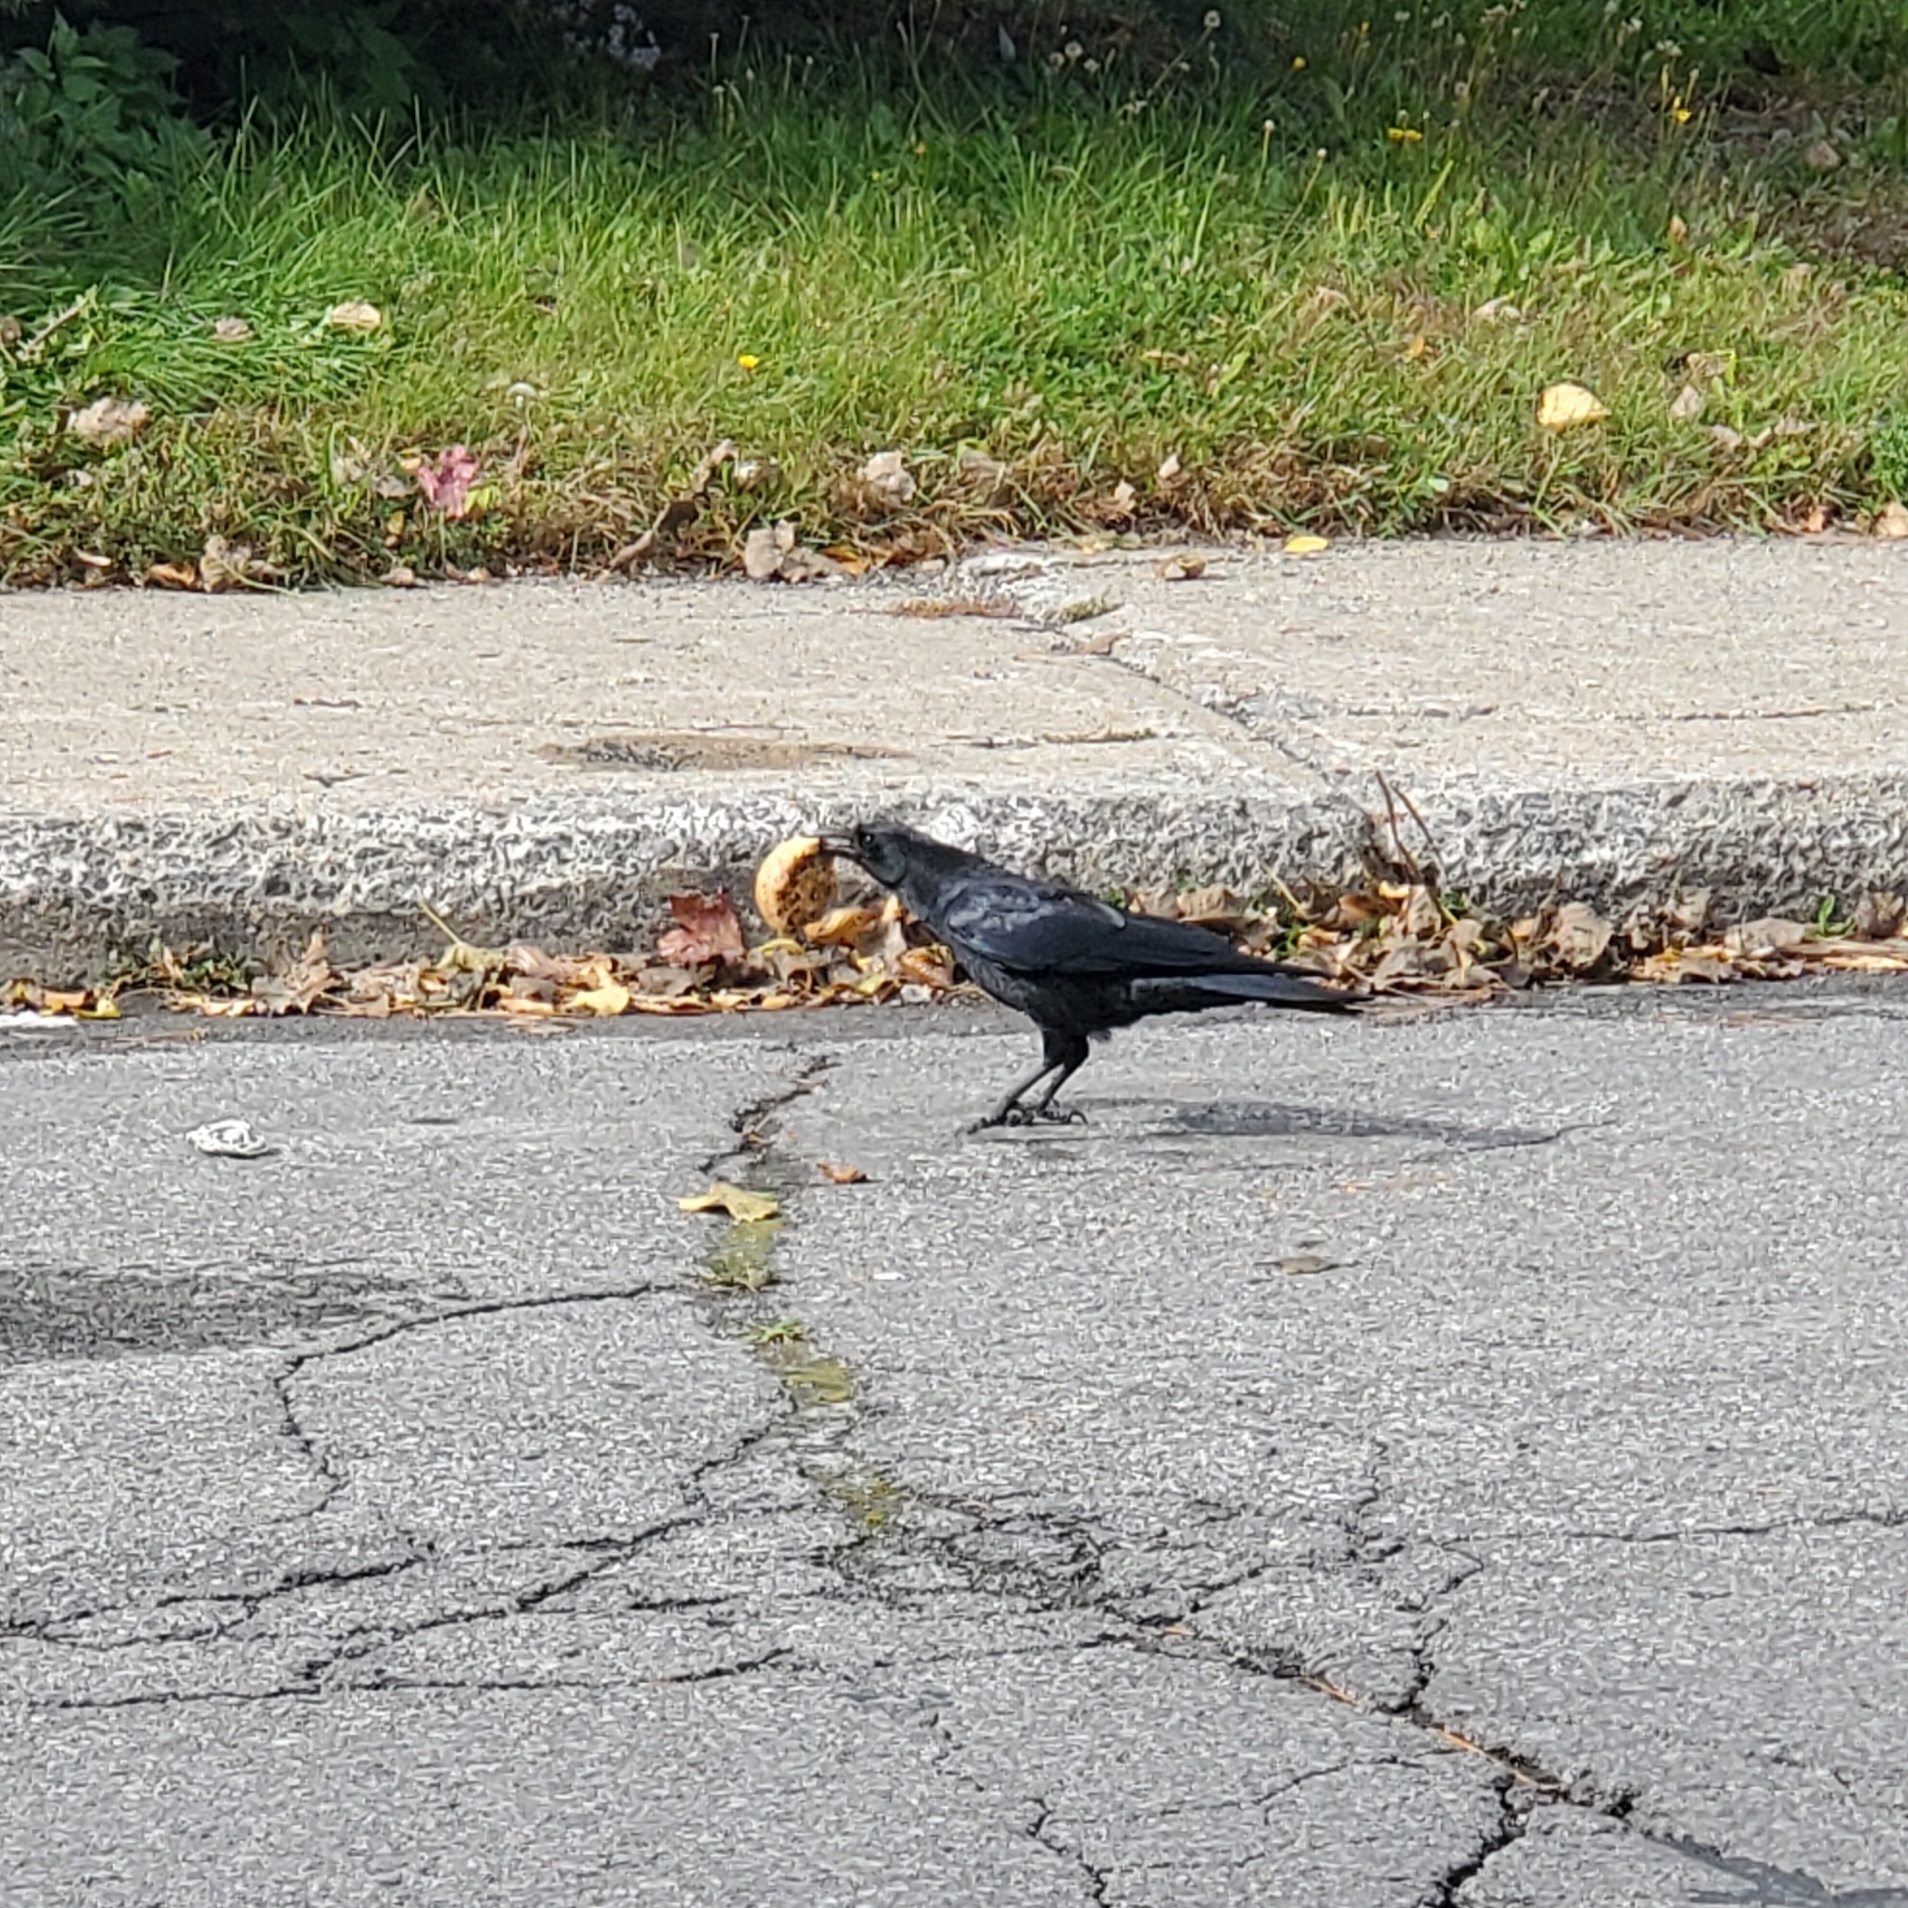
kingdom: Animalia
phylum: Chordata
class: Aves
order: Passeriformes
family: Corvidae
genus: Corvus
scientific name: Corvus brachyrhynchos
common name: American crow
